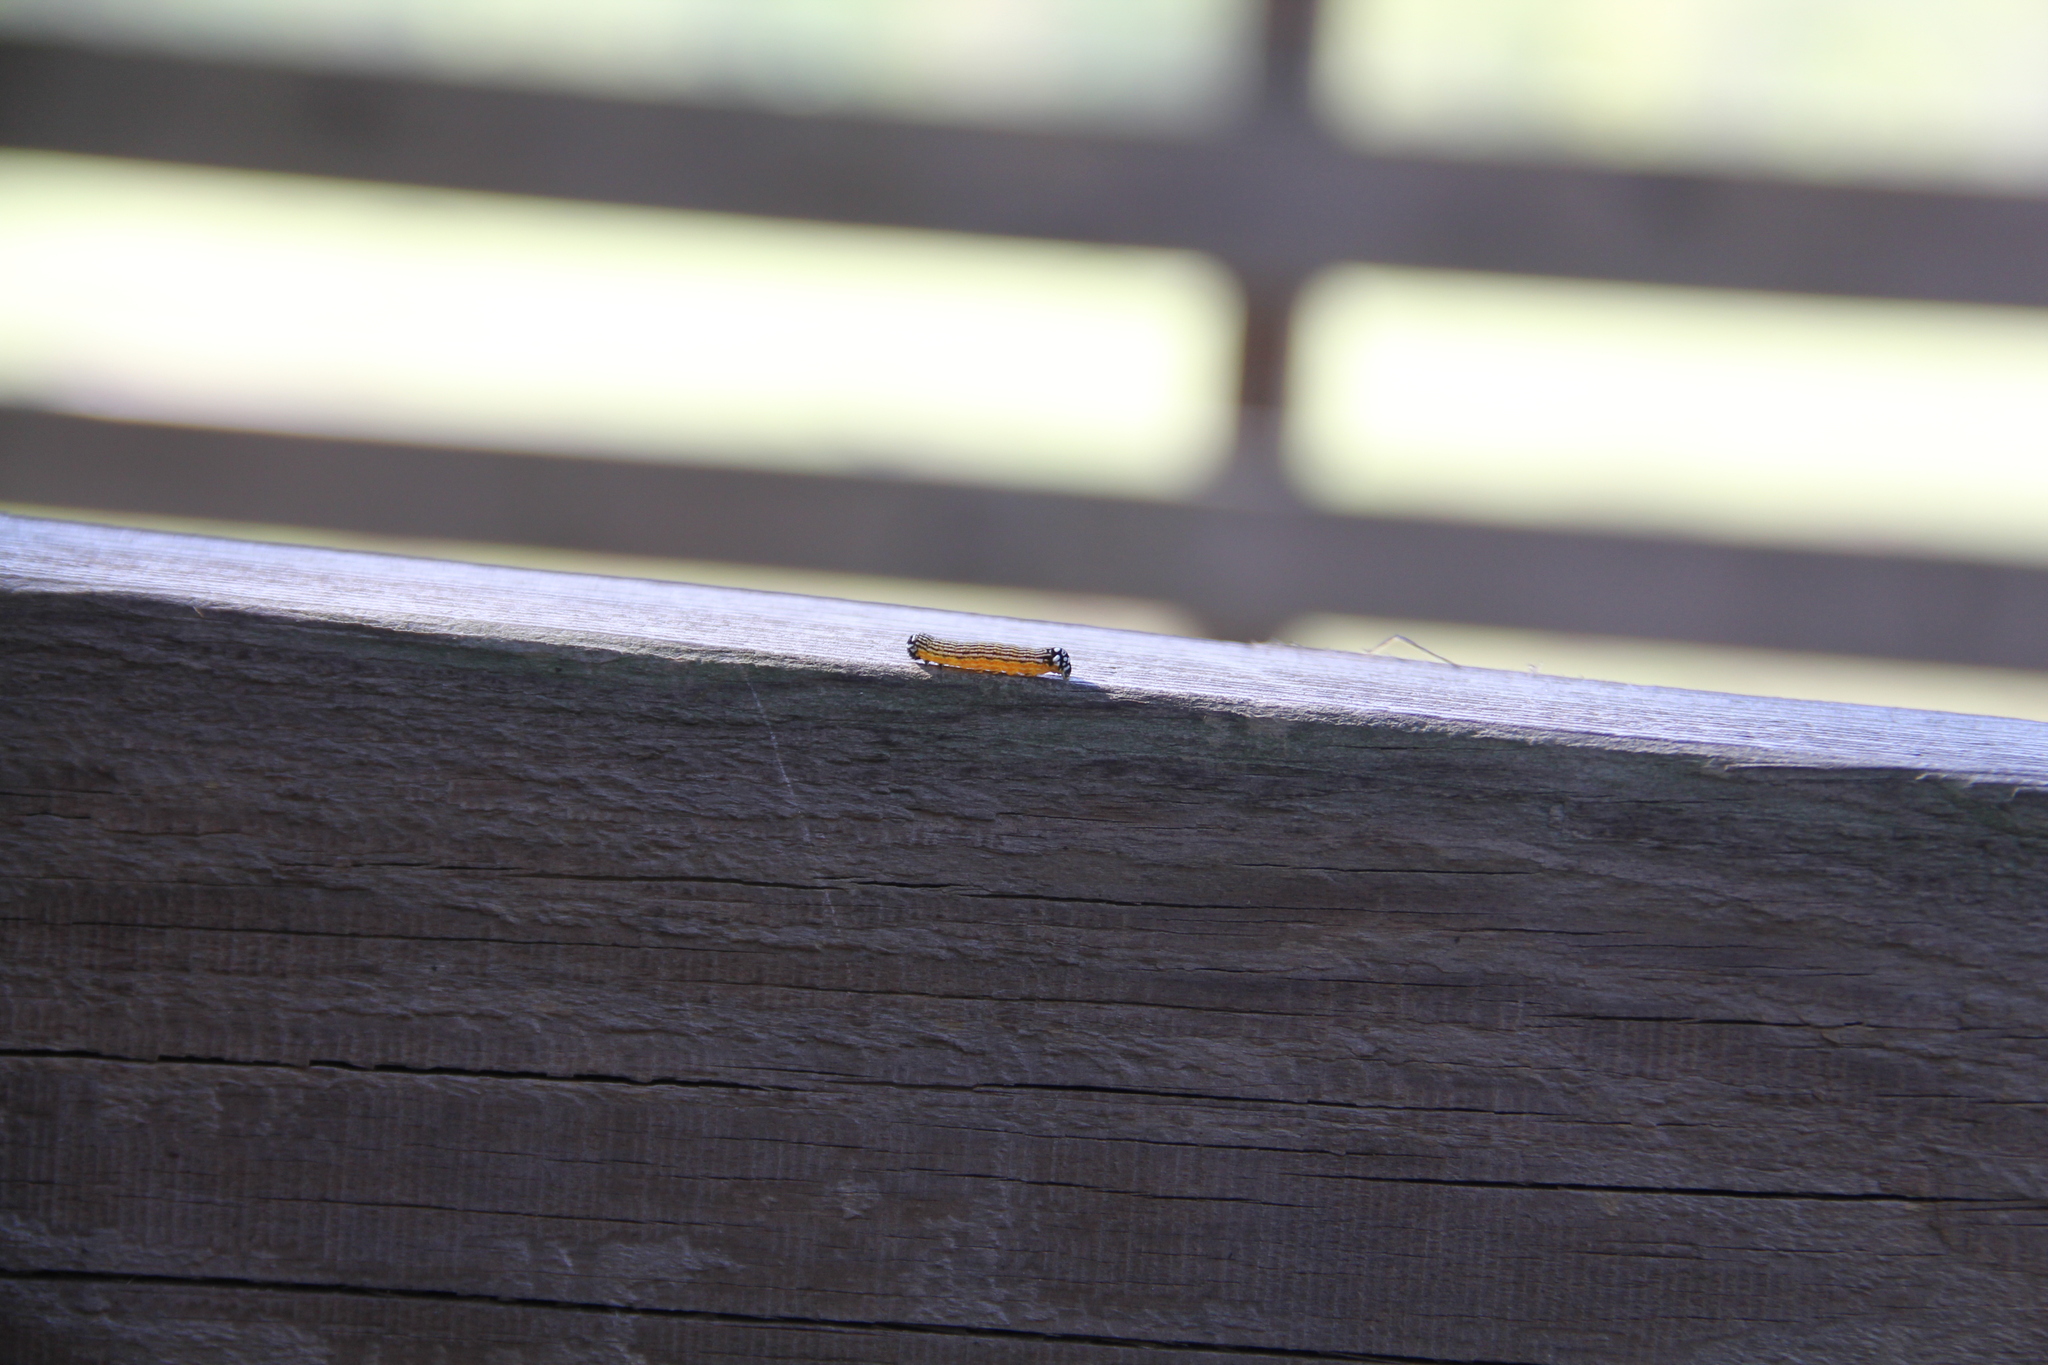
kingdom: Animalia
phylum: Arthropoda
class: Insecta
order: Lepidoptera
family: Noctuidae
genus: Phosphila
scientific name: Phosphila turbulenta
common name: Turbulent phosphila moth
